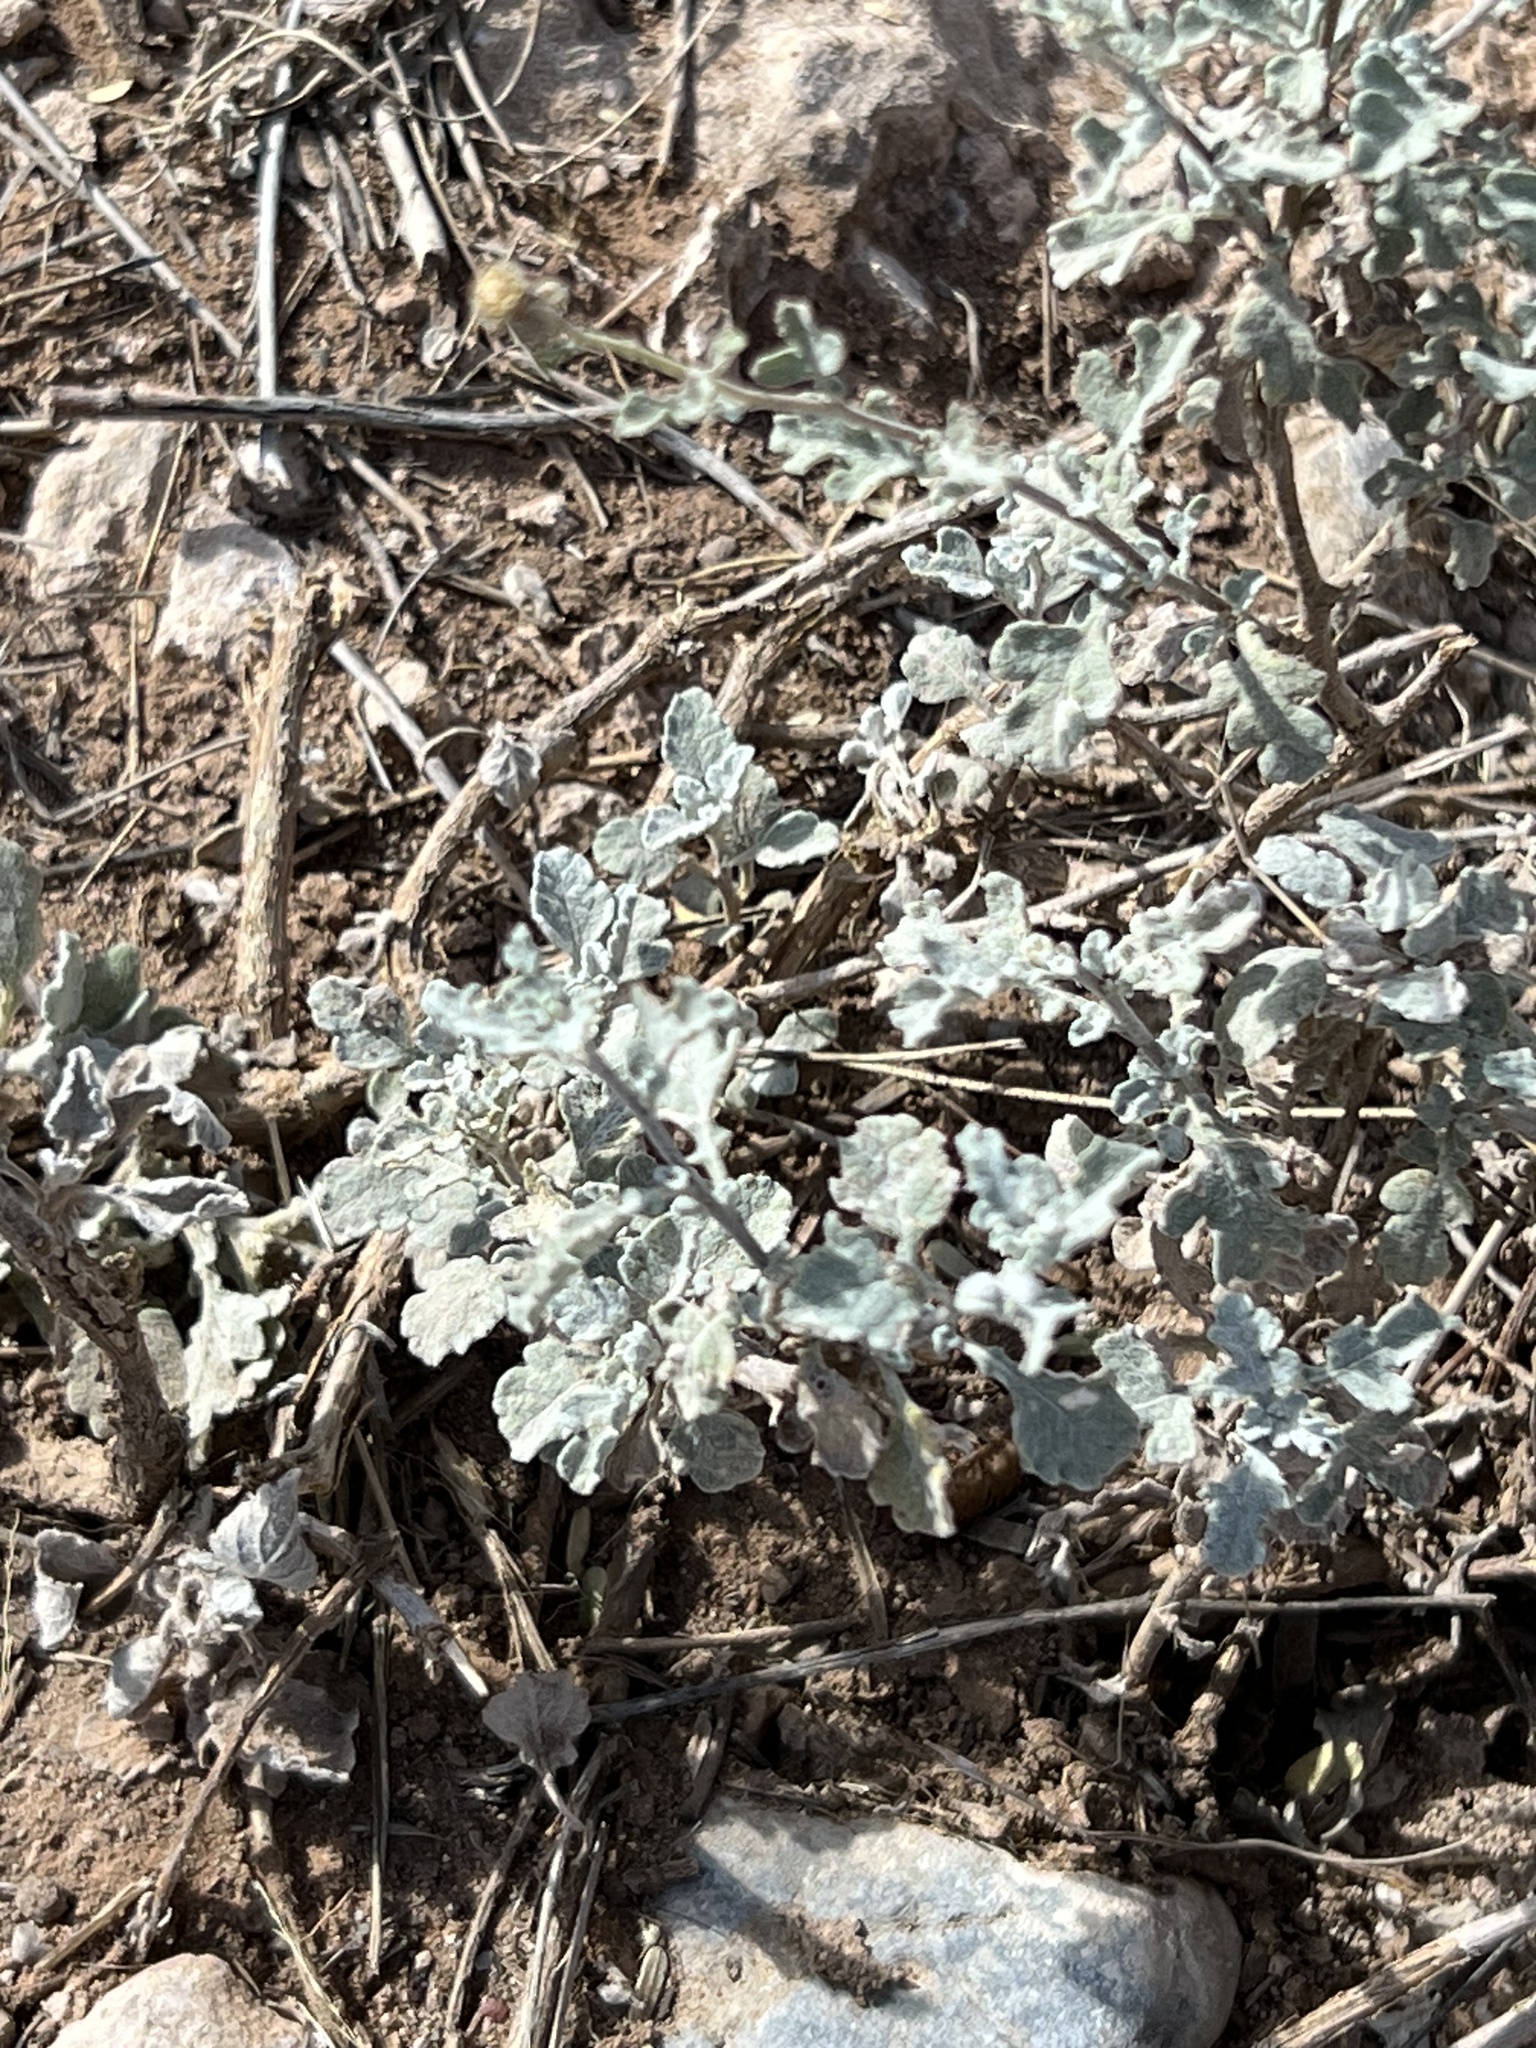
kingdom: Plantae
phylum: Tracheophyta
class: Magnoliopsida
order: Asterales
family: Asteraceae
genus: Parthenium
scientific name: Parthenium incanum
